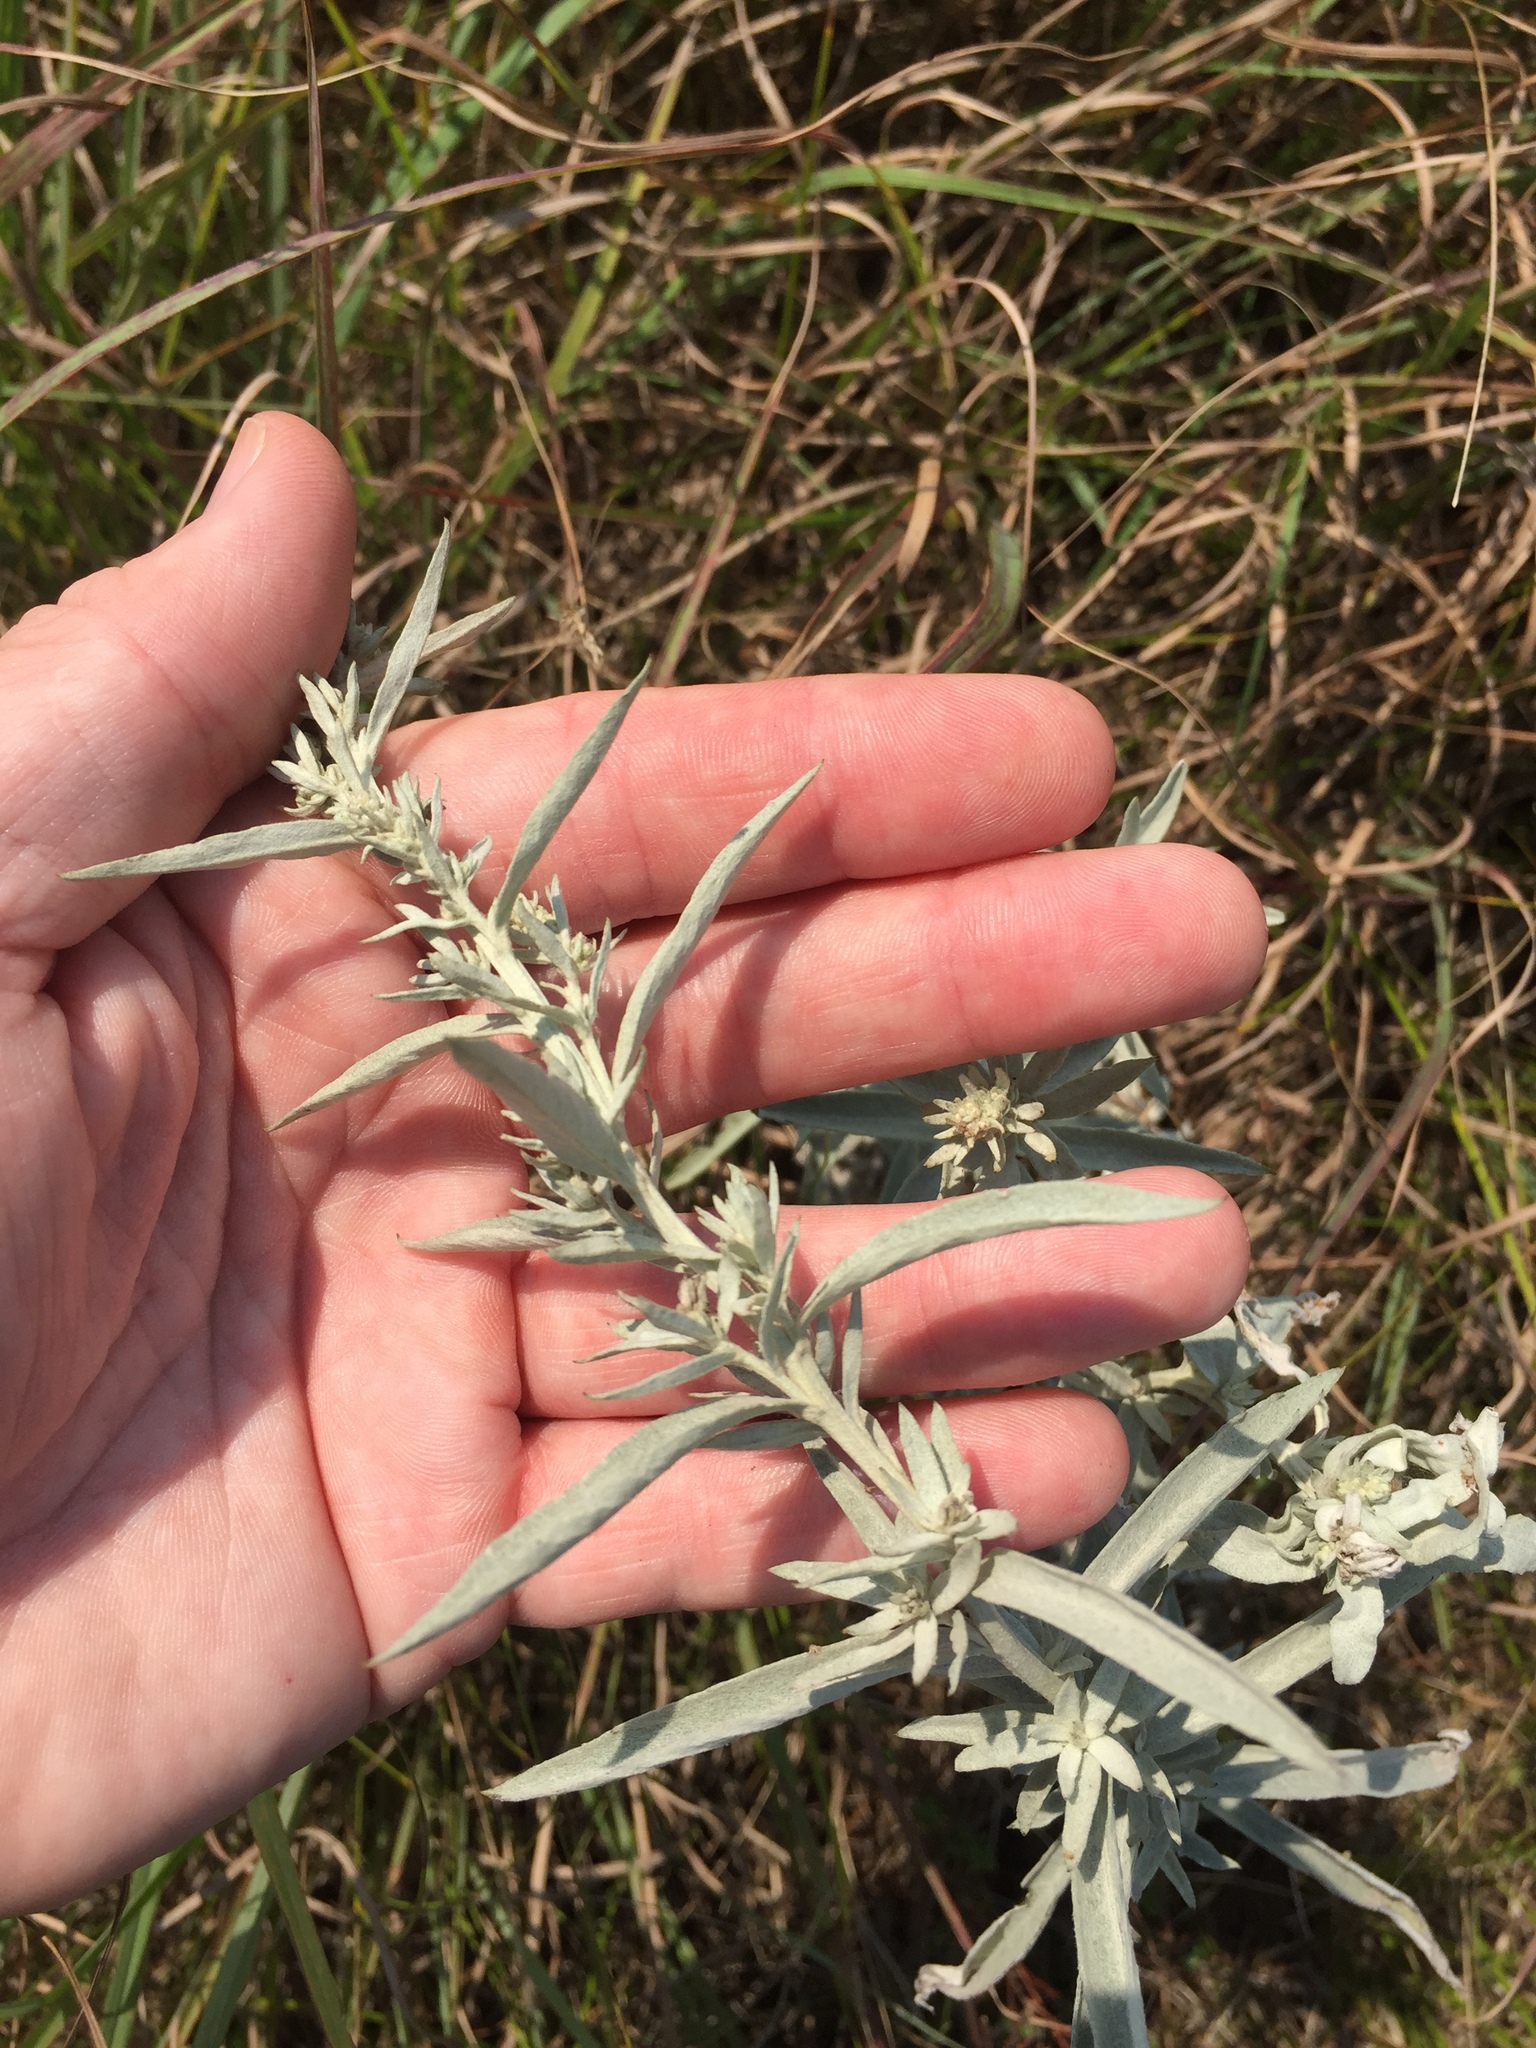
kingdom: Plantae
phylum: Tracheophyta
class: Magnoliopsida
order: Asterales
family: Asteraceae
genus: Artemisia
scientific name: Artemisia ludoviciana
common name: Western mugwort
